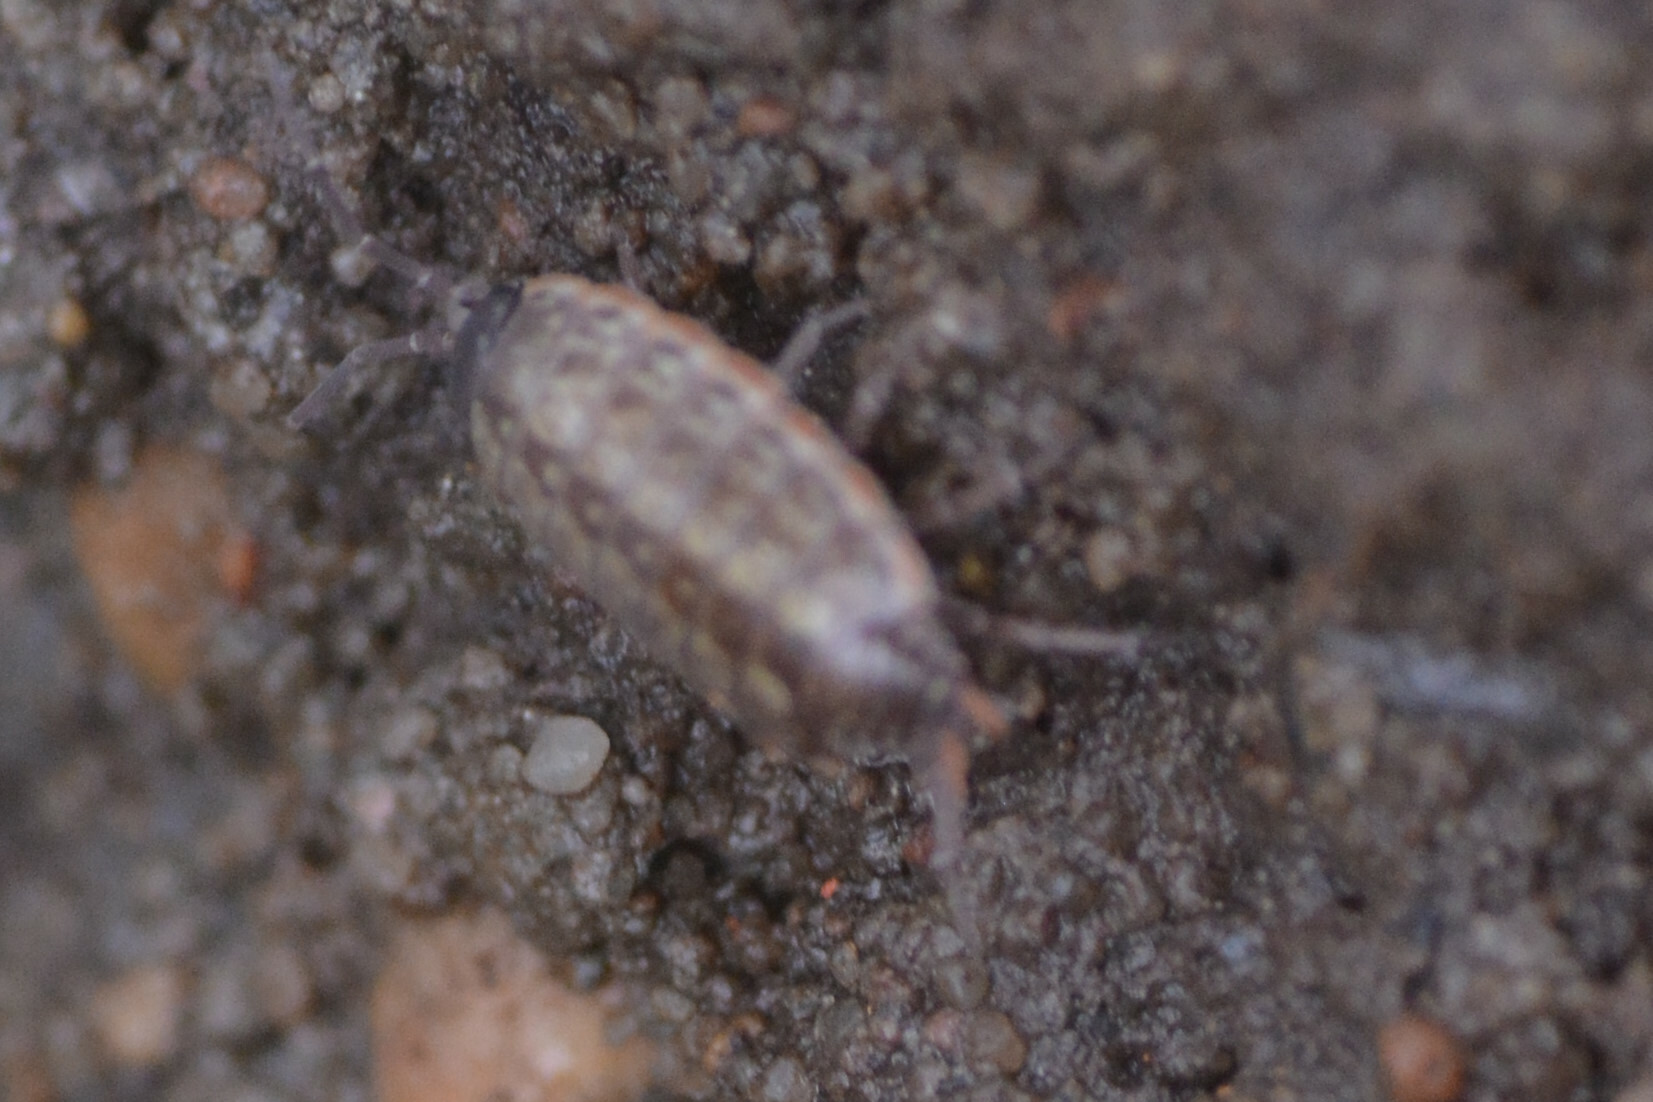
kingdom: Animalia
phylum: Arthropoda
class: Malacostraca
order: Isopoda
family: Philosciidae
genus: Philoscia
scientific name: Philoscia muscorum
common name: Common striped woodlouse
